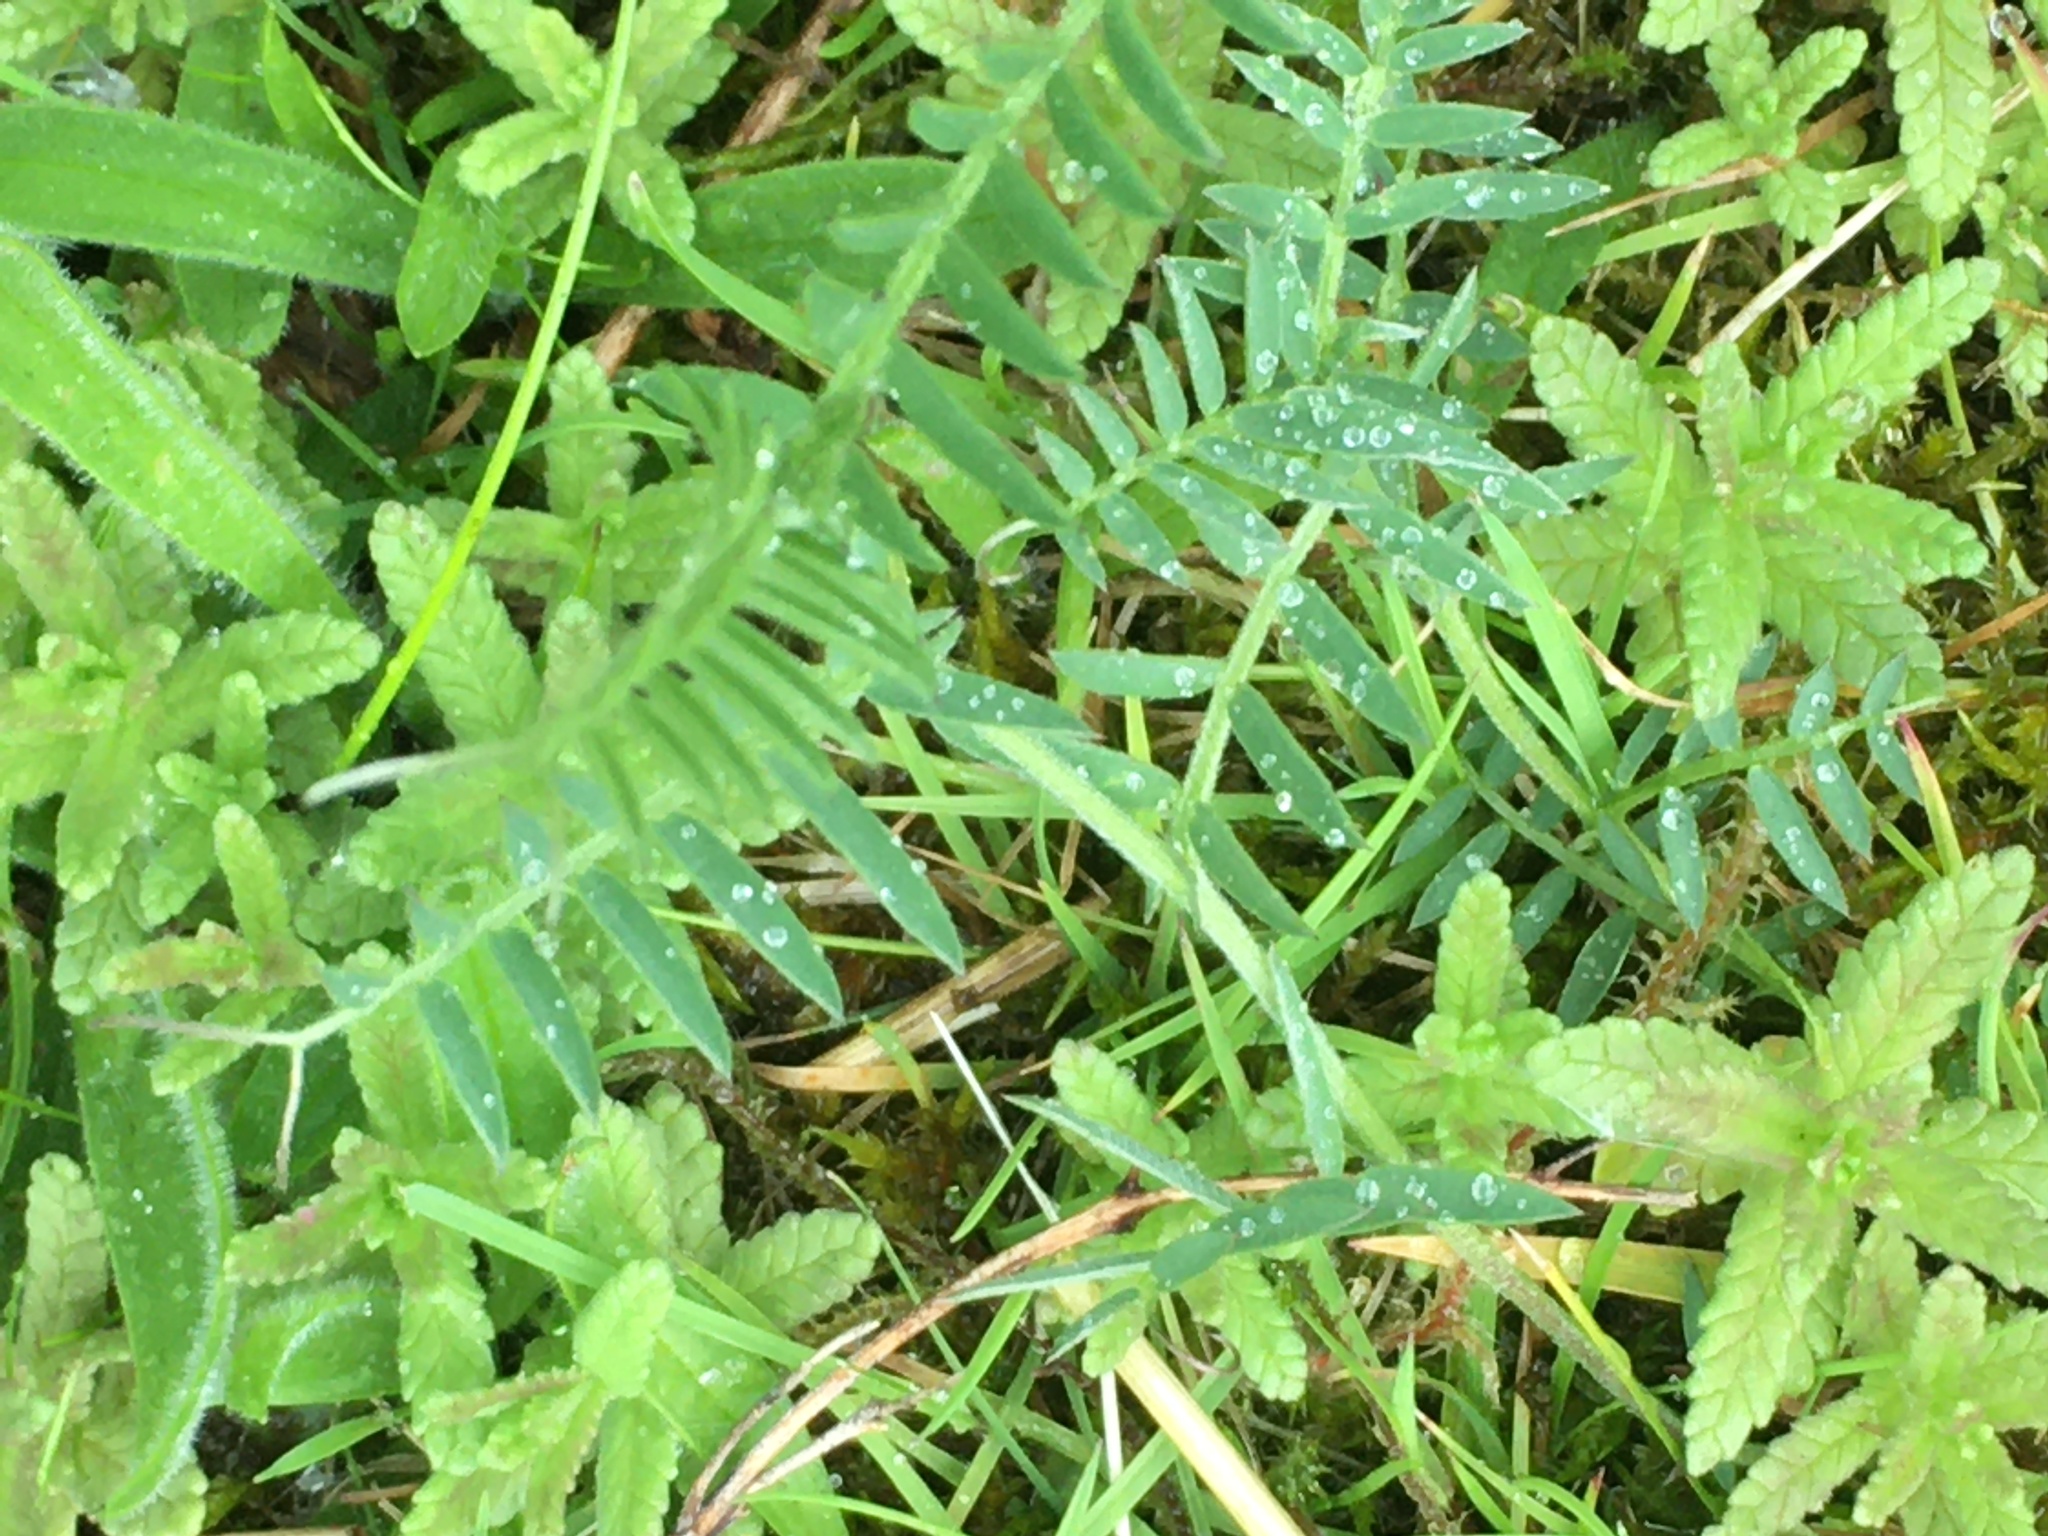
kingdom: Plantae
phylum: Tracheophyta
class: Magnoliopsida
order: Fabales
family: Fabaceae
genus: Vicia
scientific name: Vicia cracca
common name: Bird vetch
